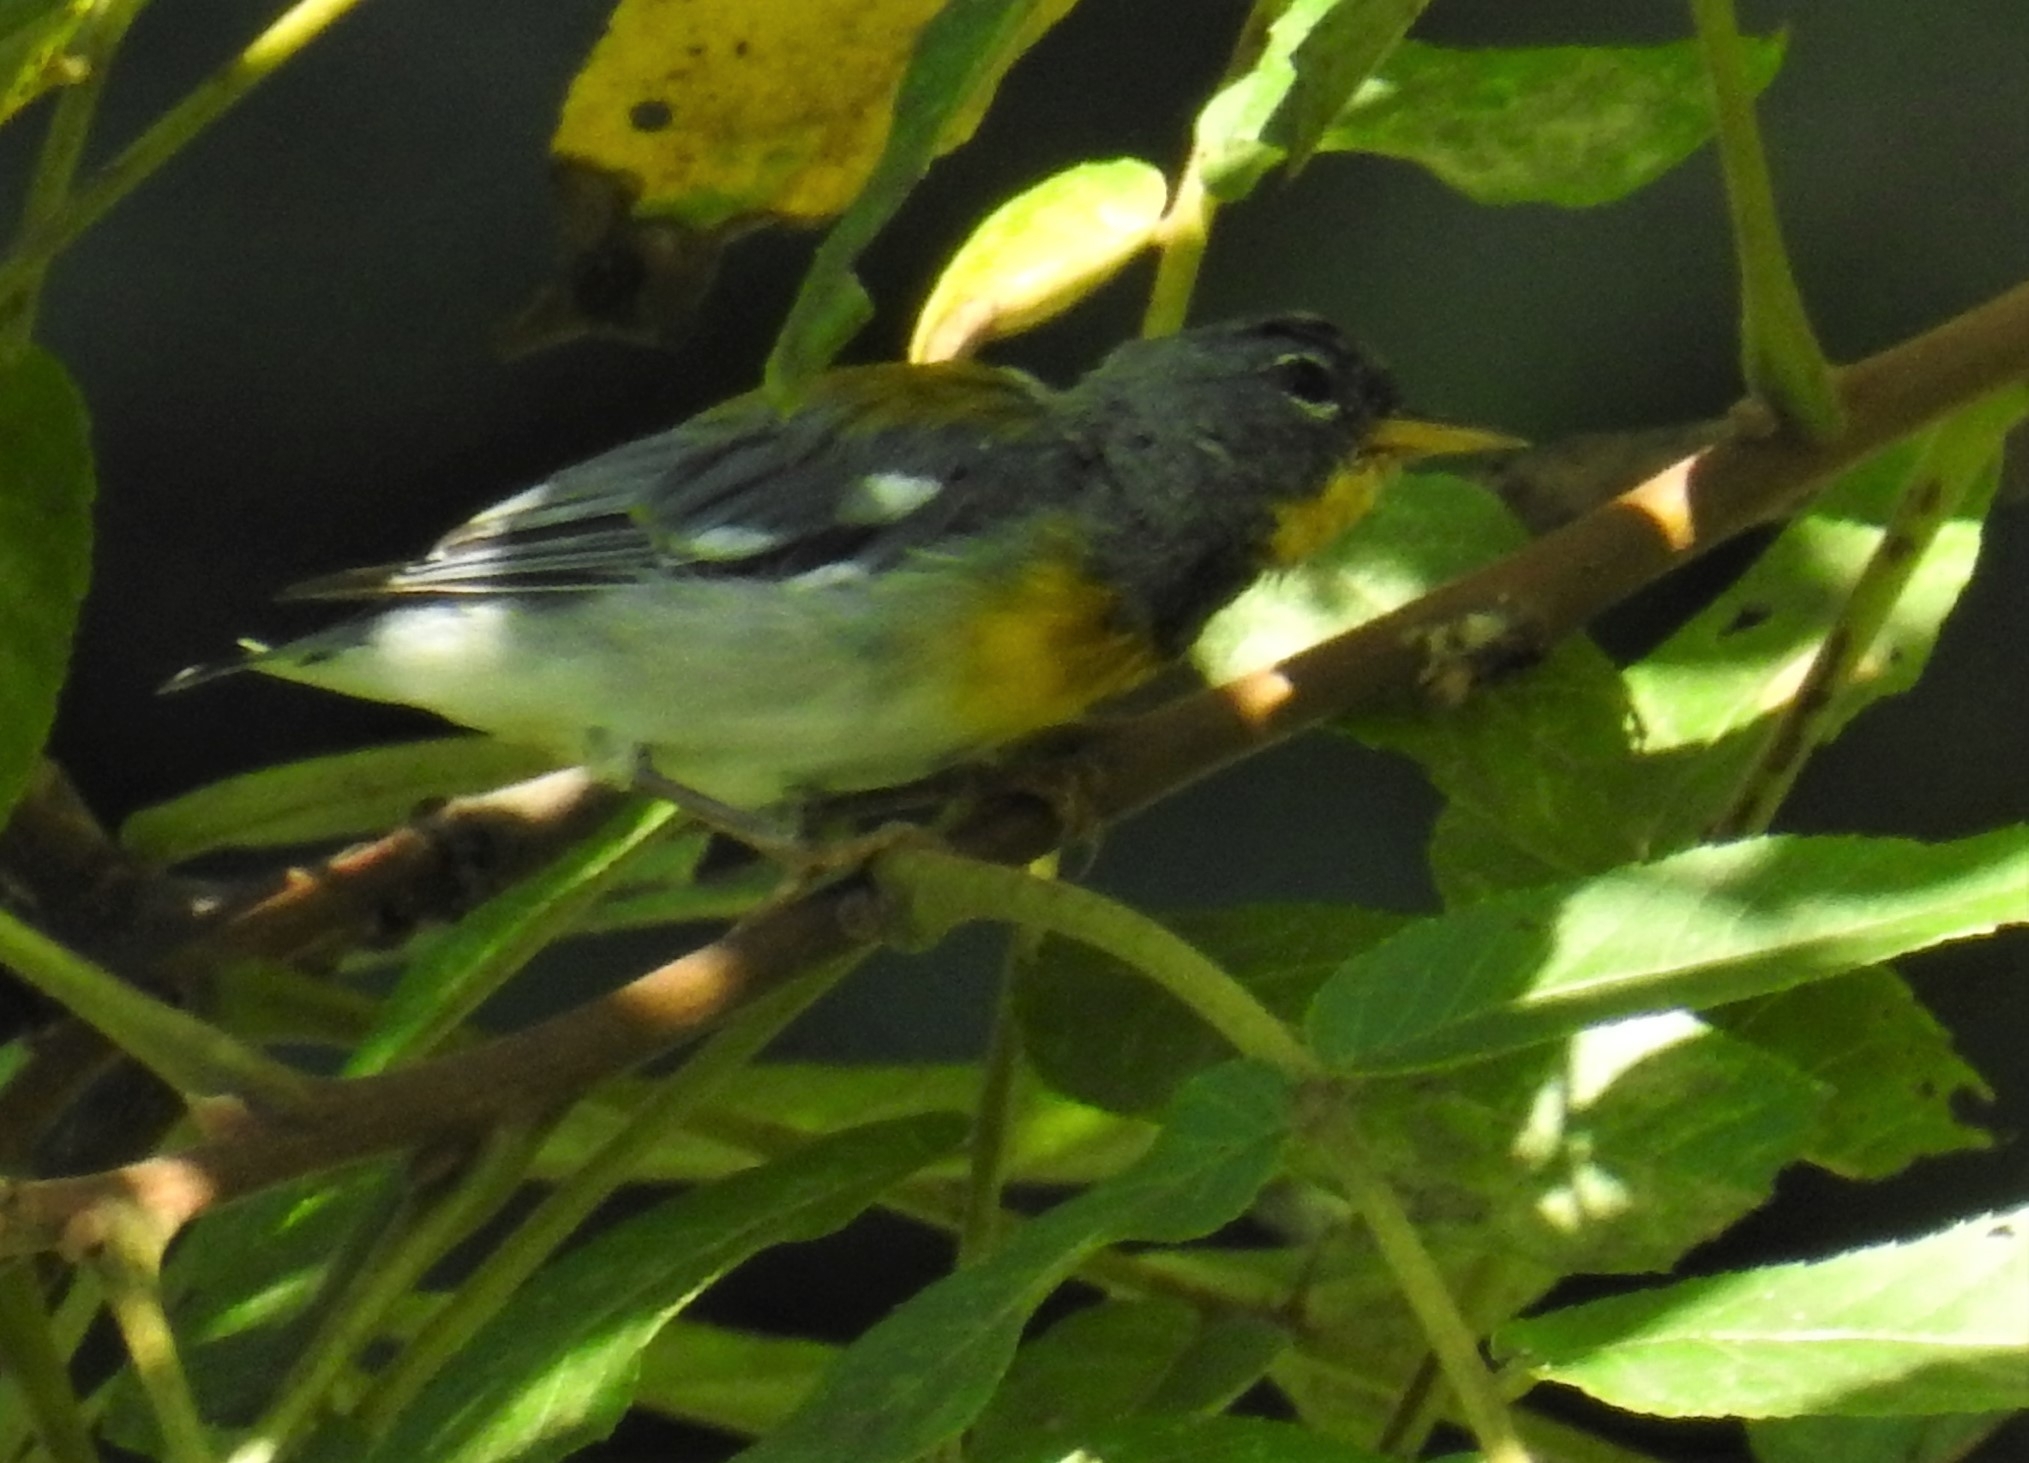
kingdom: Animalia
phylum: Chordata
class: Aves
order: Passeriformes
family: Parulidae
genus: Setophaga
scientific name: Setophaga americana
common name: Northern parula
